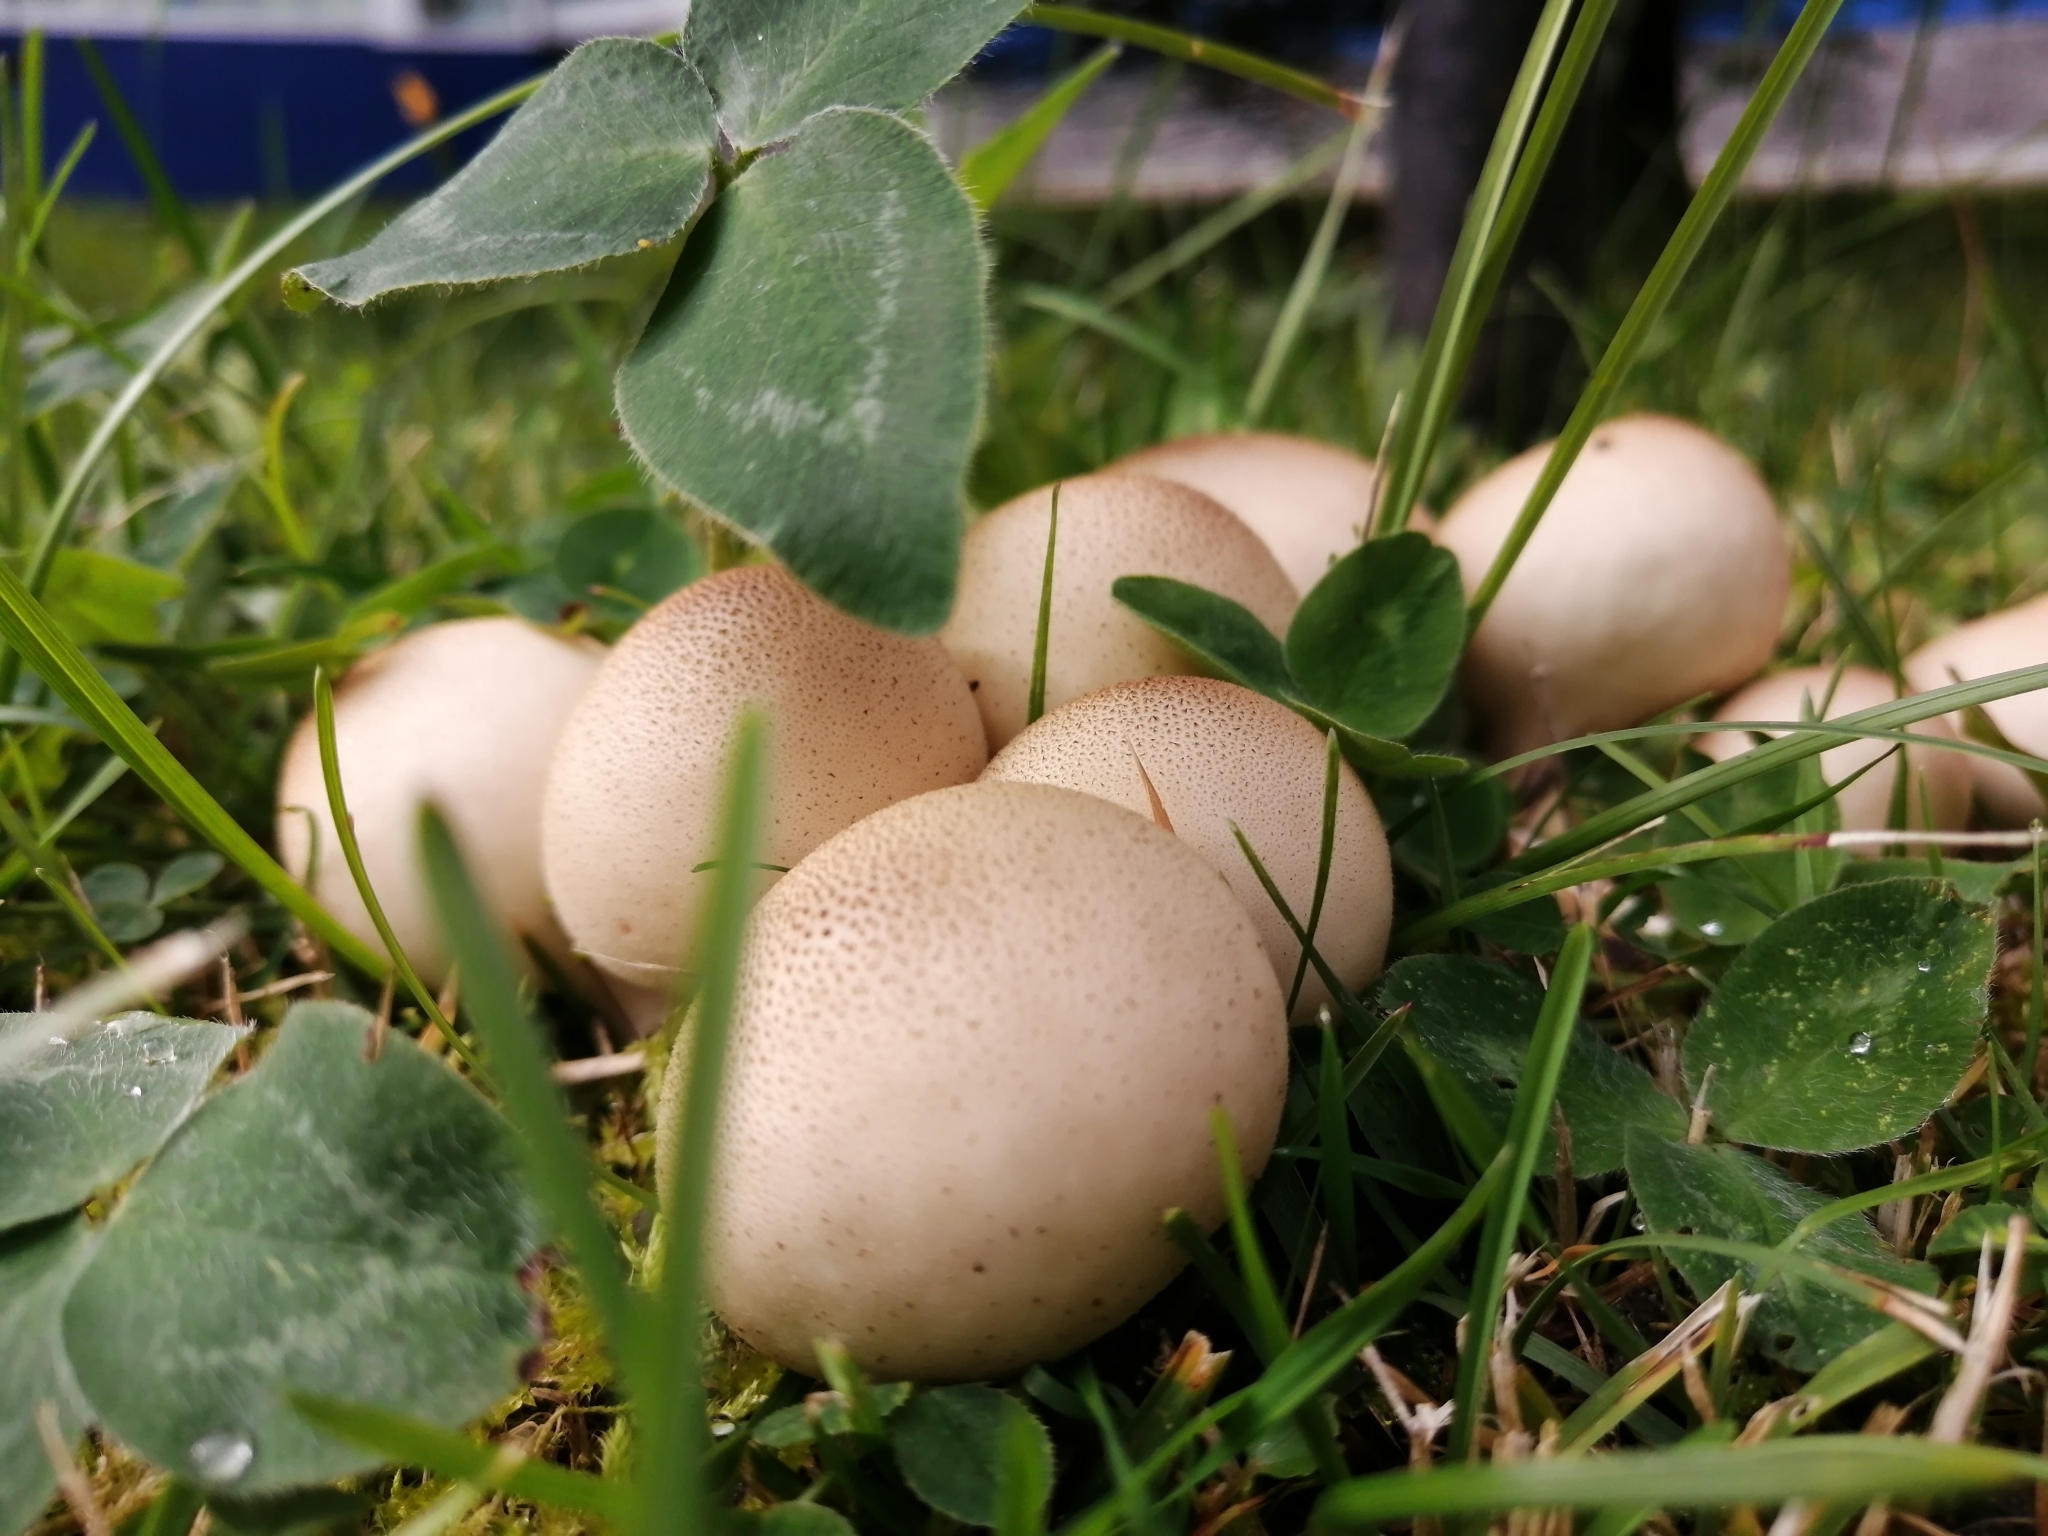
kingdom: Fungi
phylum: Basidiomycota
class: Agaricomycetes
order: Agaricales
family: Lycoperdaceae
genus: Apioperdon
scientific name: Apioperdon pyriforme
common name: Pear-shaped puffball
